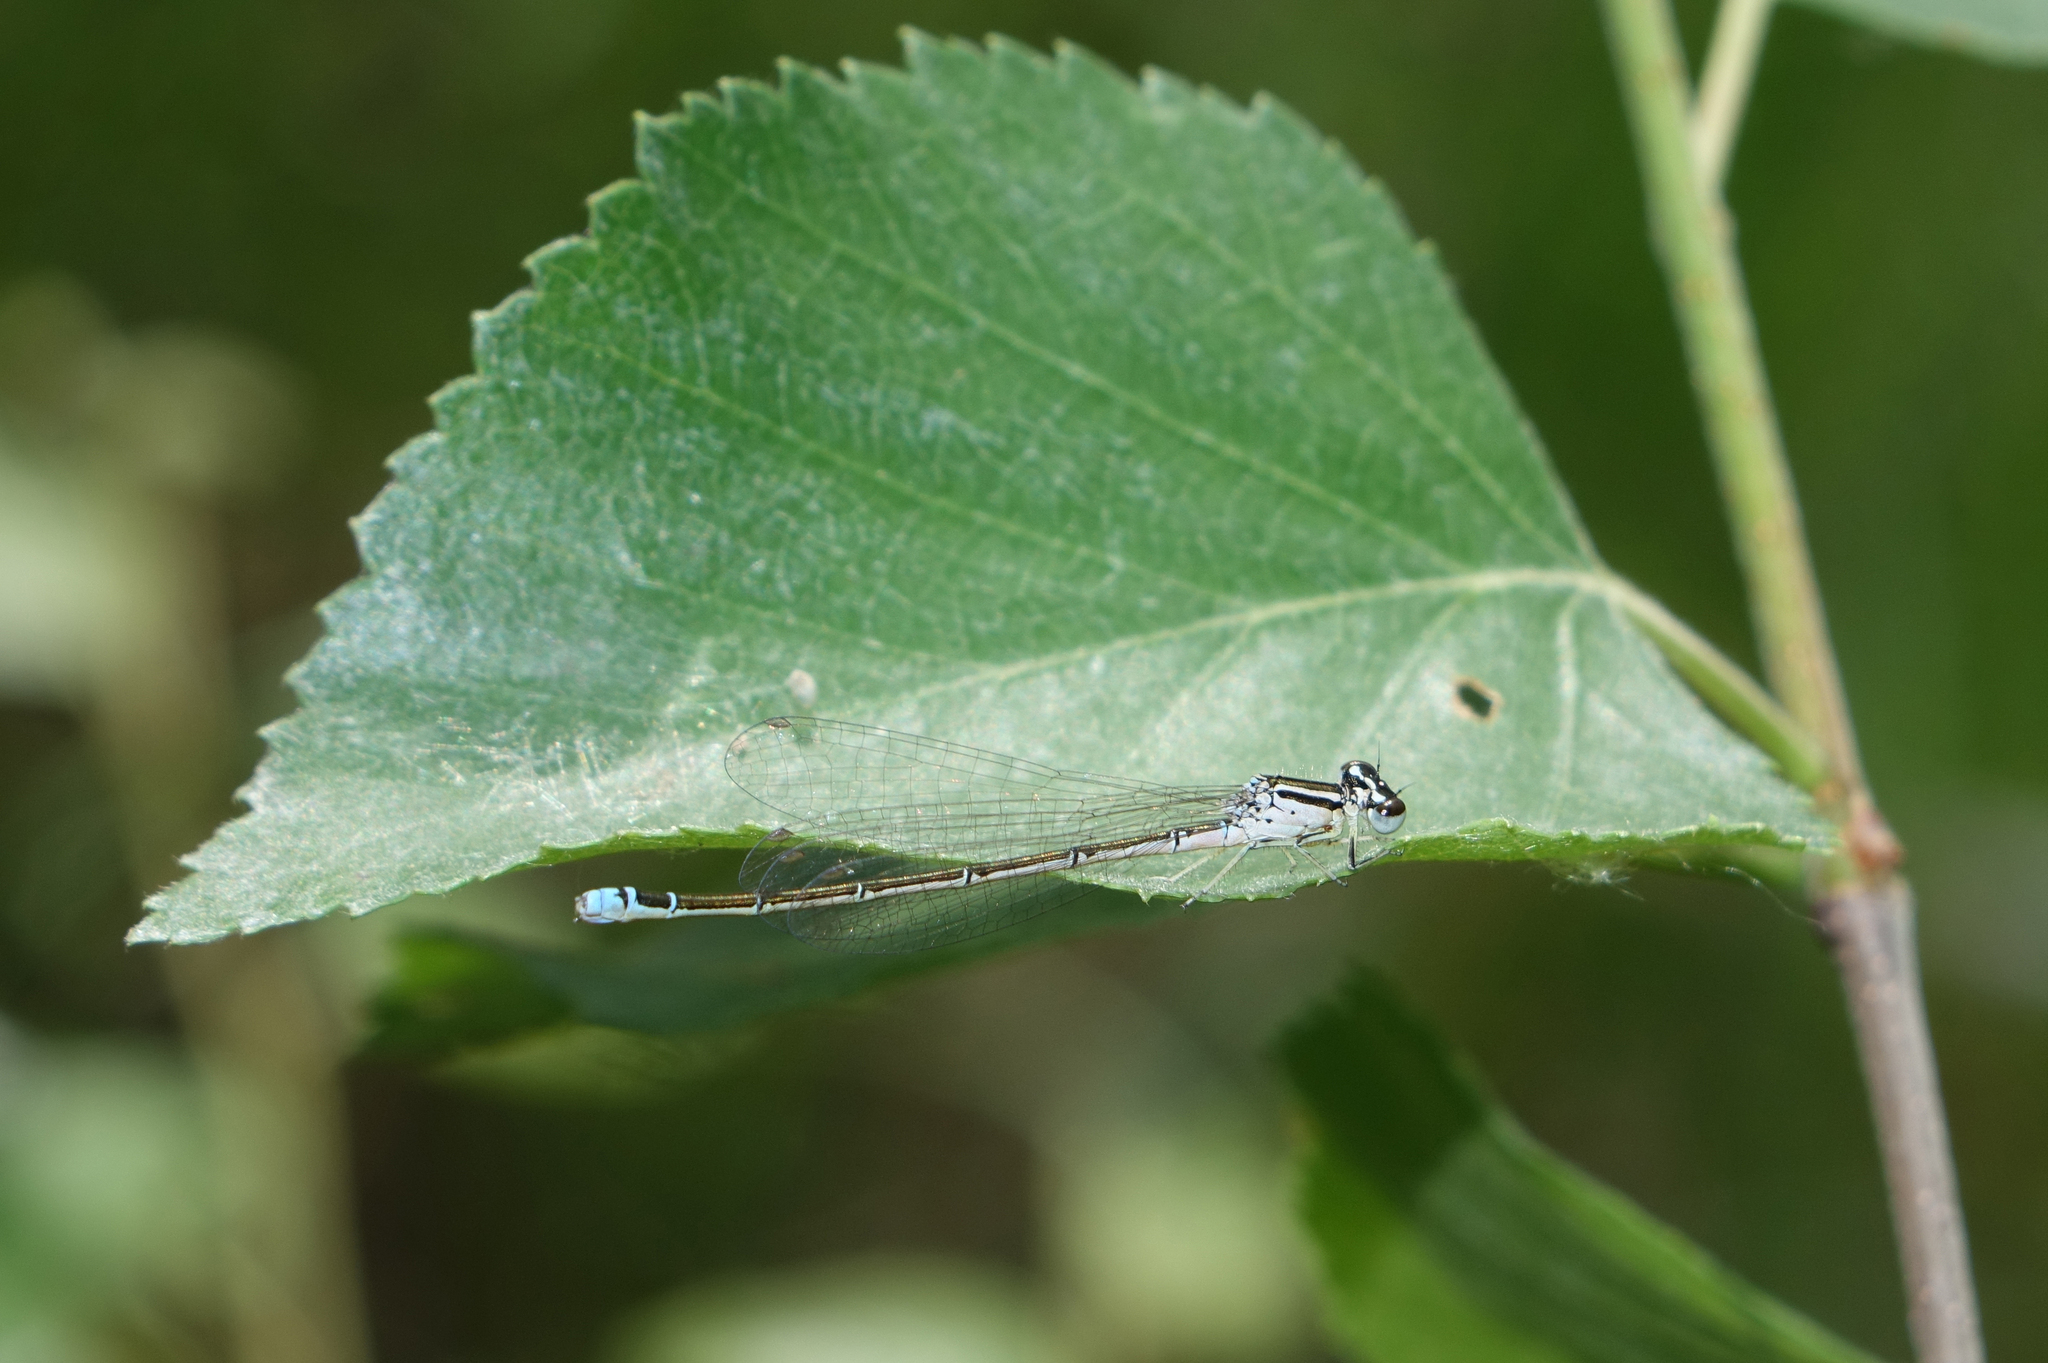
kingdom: Animalia
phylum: Arthropoda
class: Insecta
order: Odonata
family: Coenagrionidae
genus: Coenagrion
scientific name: Coenagrion ecornutum
